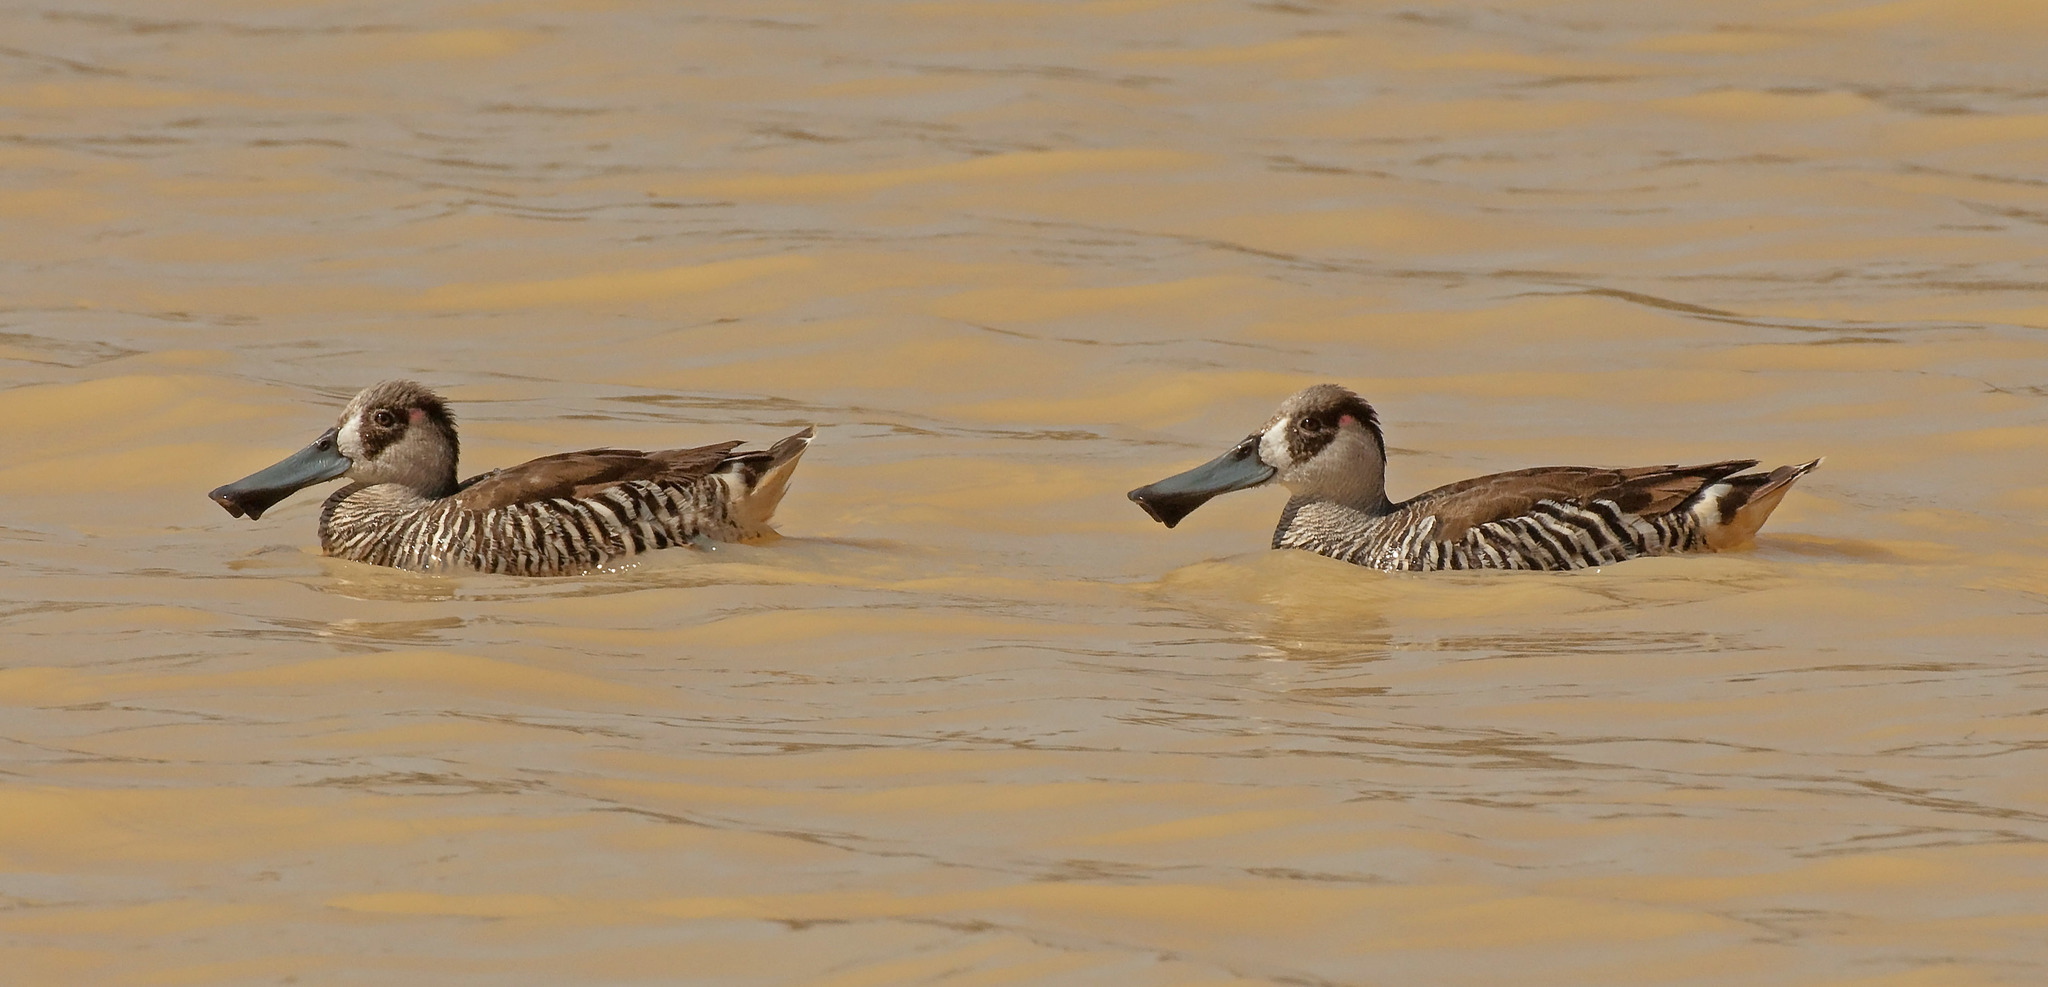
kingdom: Animalia
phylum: Chordata
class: Aves
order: Anseriformes
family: Anatidae
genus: Malacorhynchus
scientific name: Malacorhynchus membranaceus
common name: Pink-eared duck
